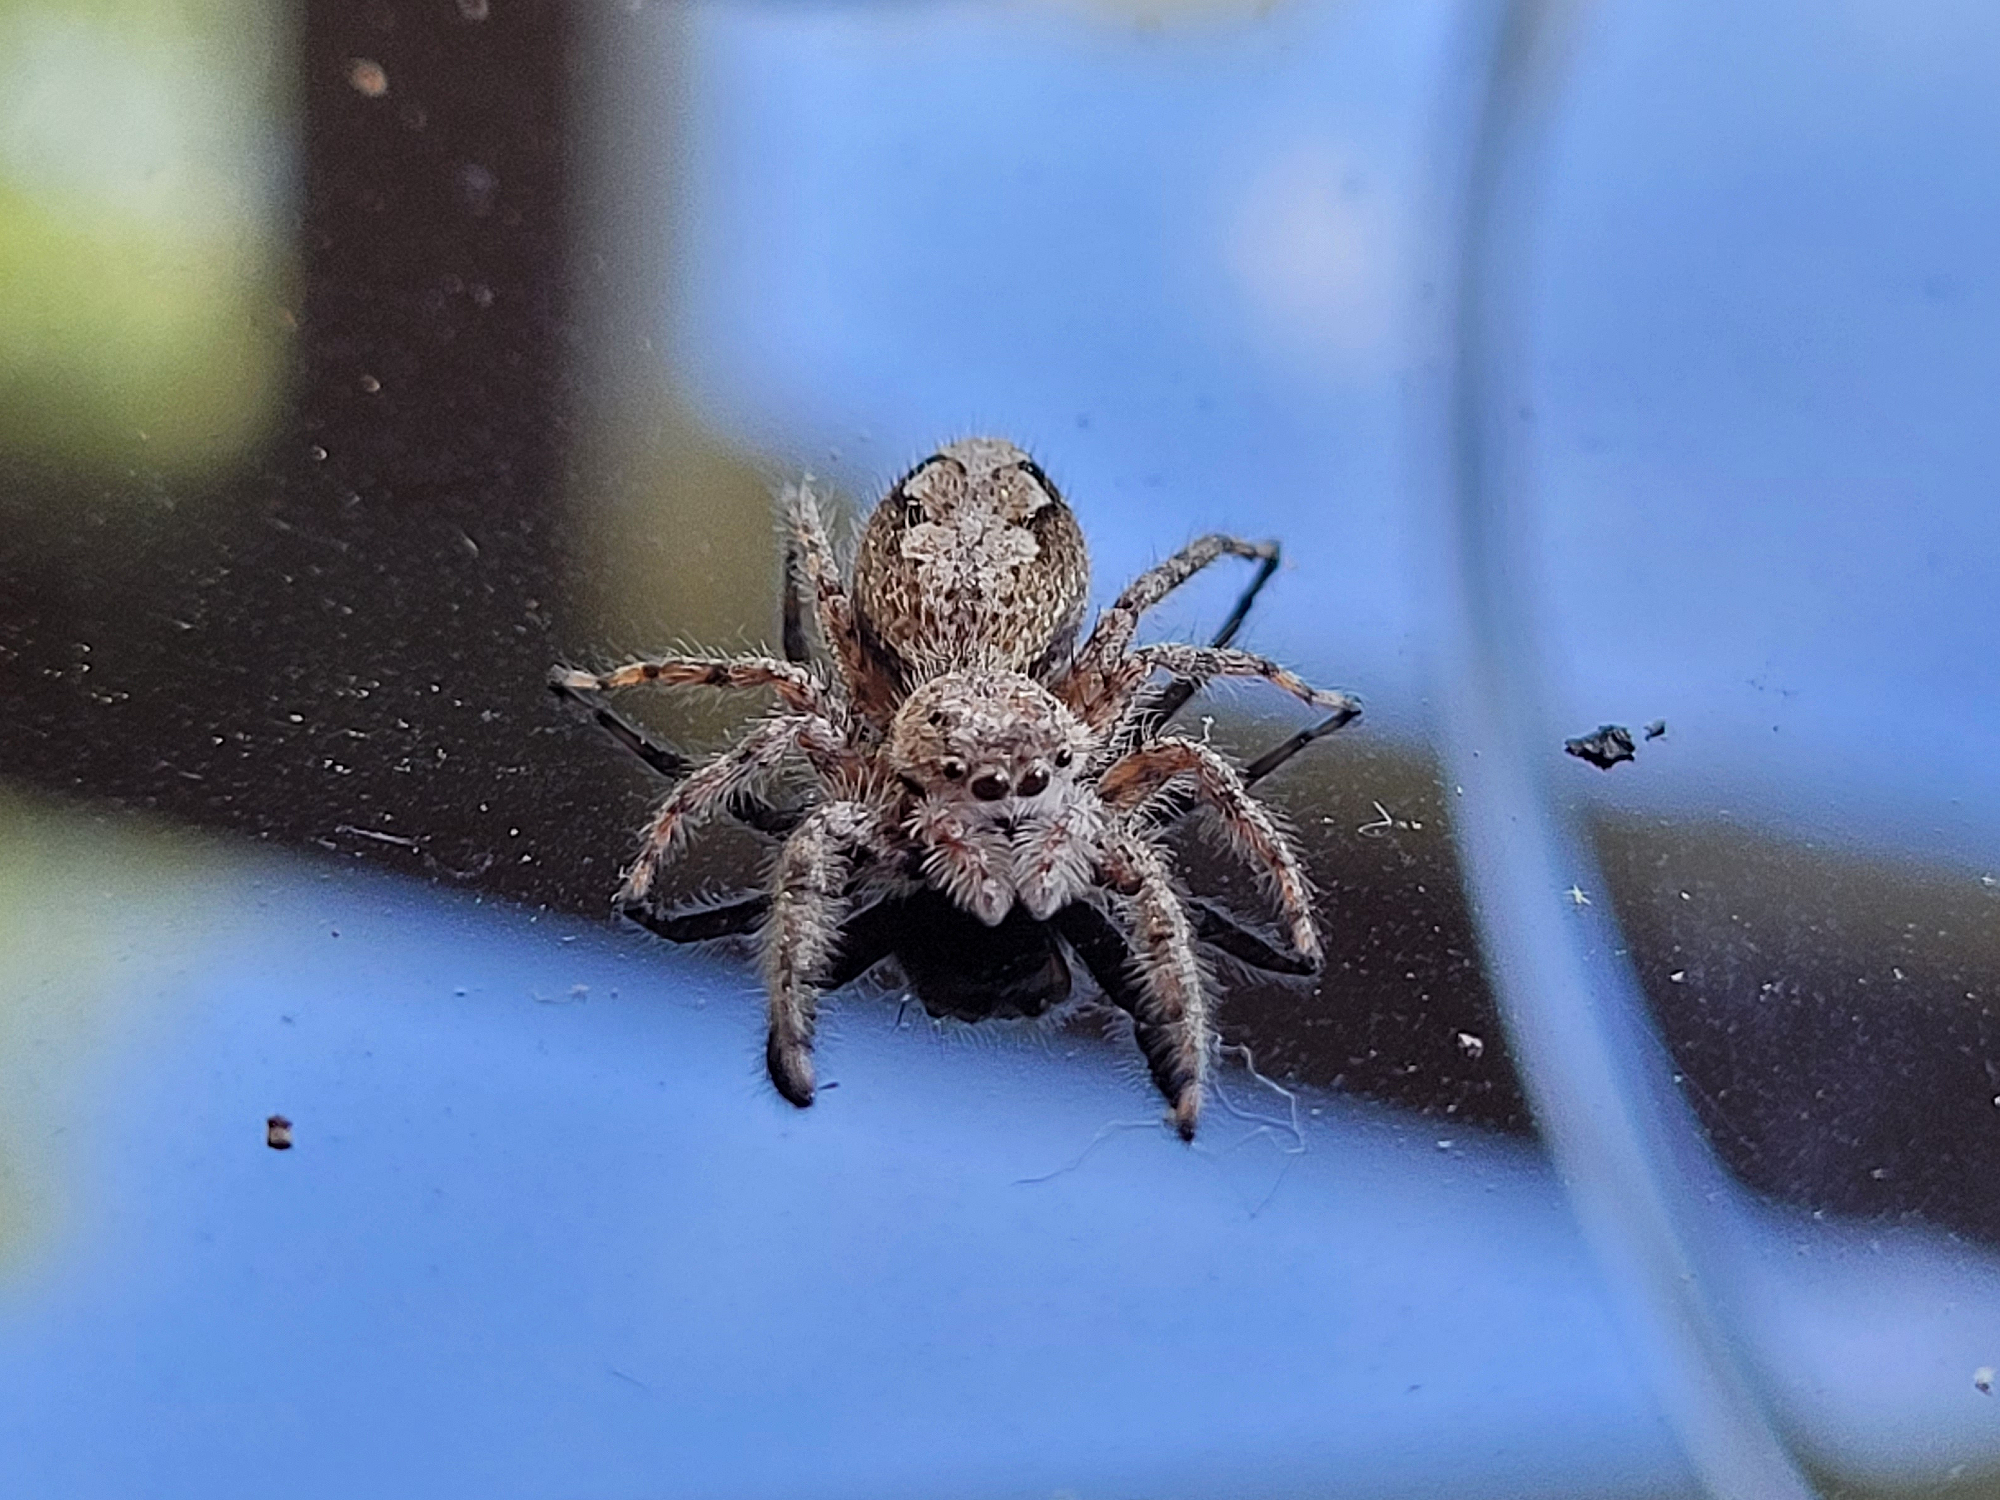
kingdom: Animalia
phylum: Arthropoda
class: Arachnida
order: Araneae
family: Salticidae
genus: Platycryptus
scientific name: Platycryptus undatus
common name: Tan jumping spider
